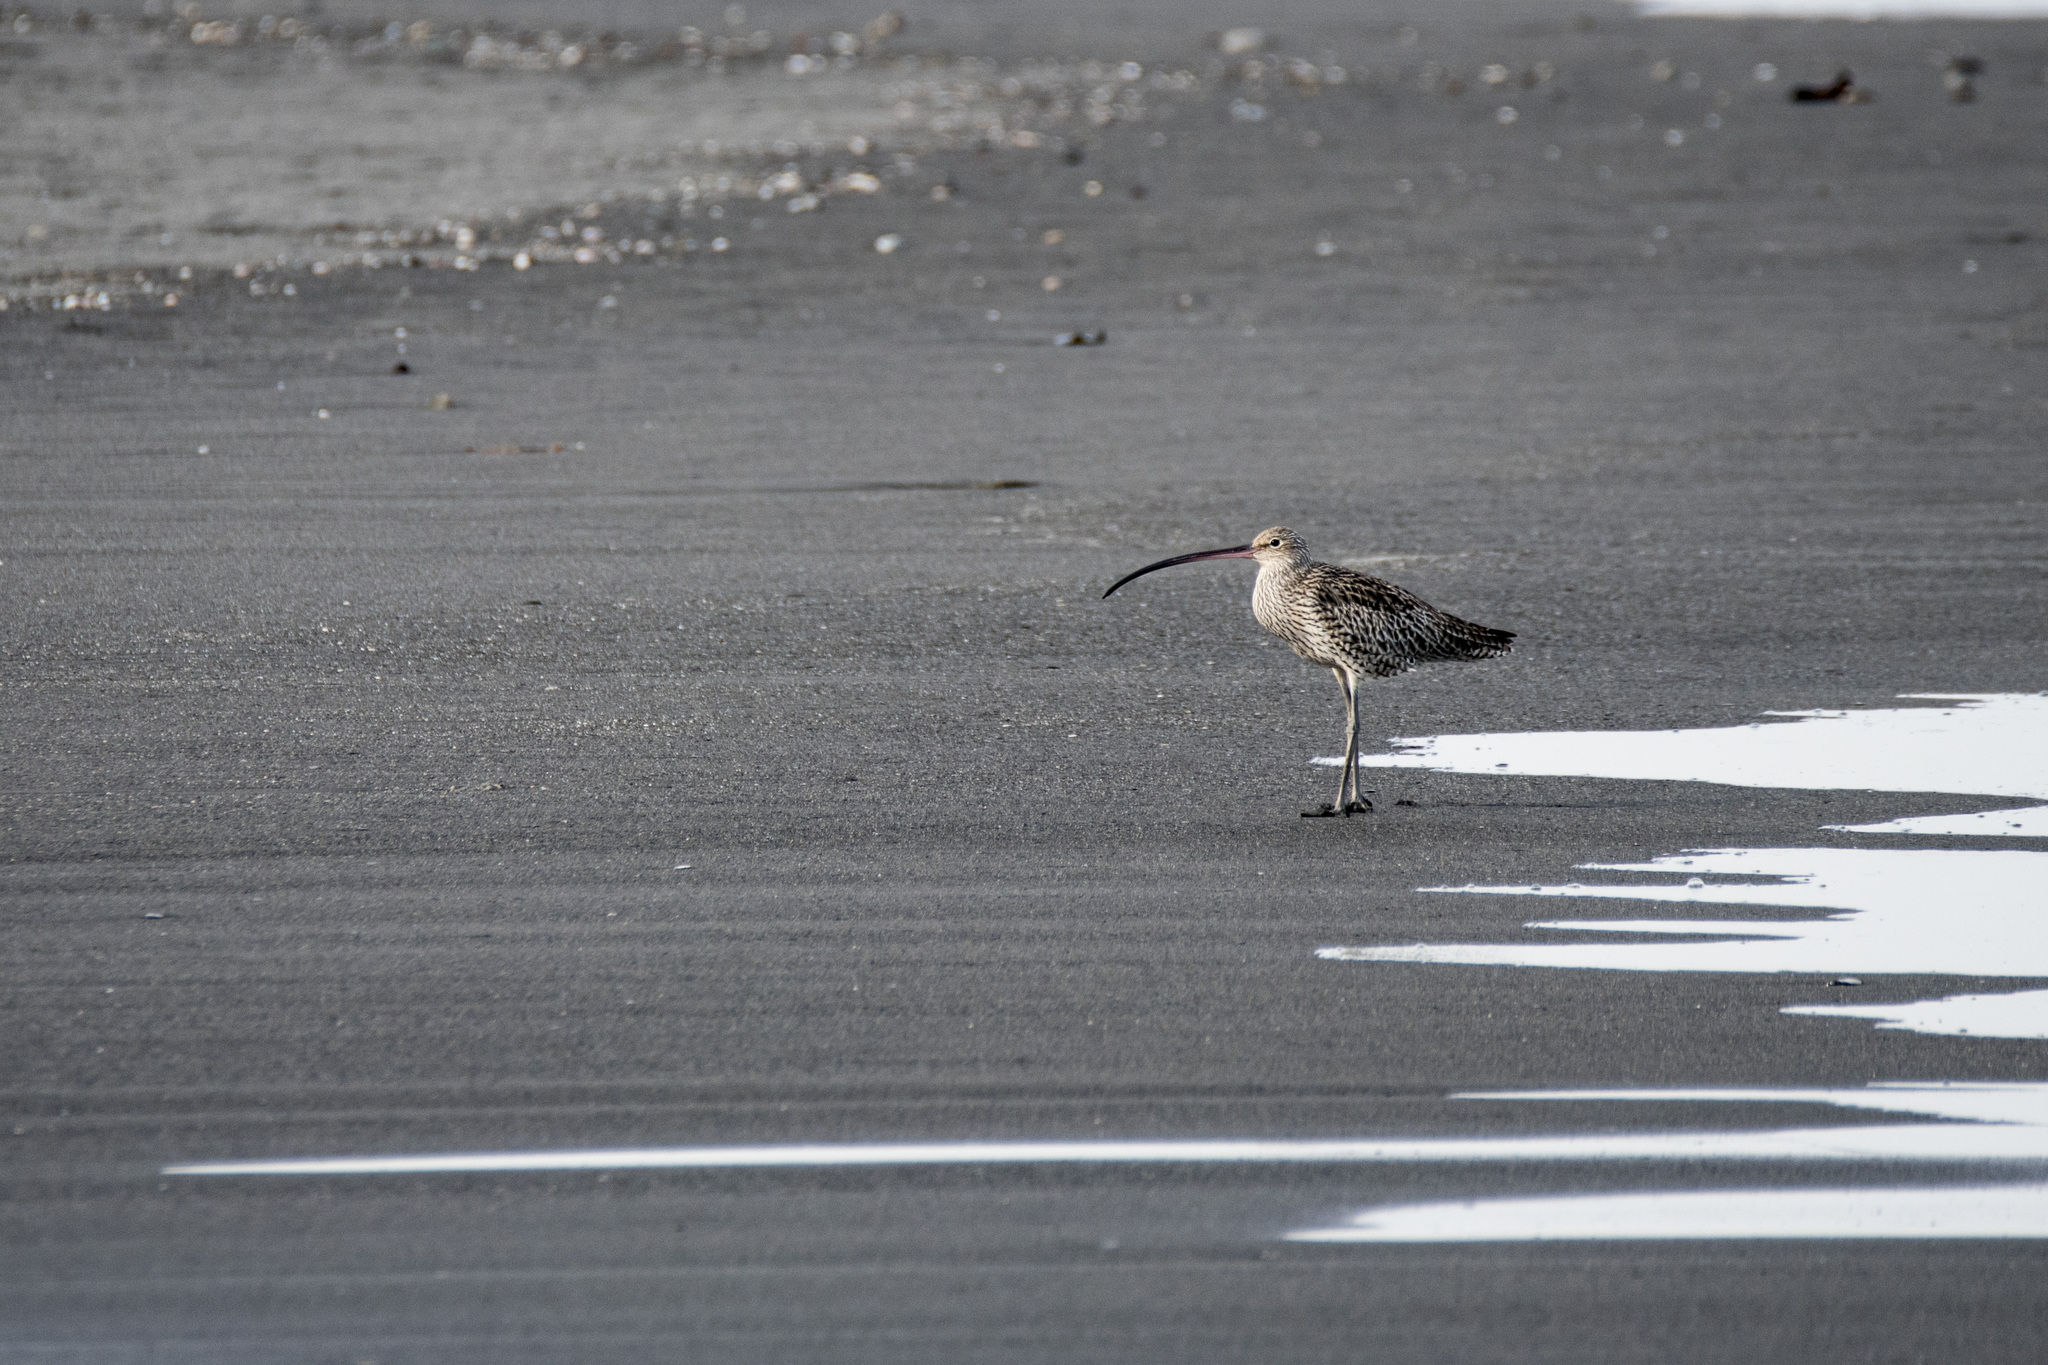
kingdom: Animalia
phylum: Chordata
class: Aves
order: Charadriiformes
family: Scolopacidae
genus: Numenius
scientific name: Numenius madagascariensis
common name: Far eastern curlew
